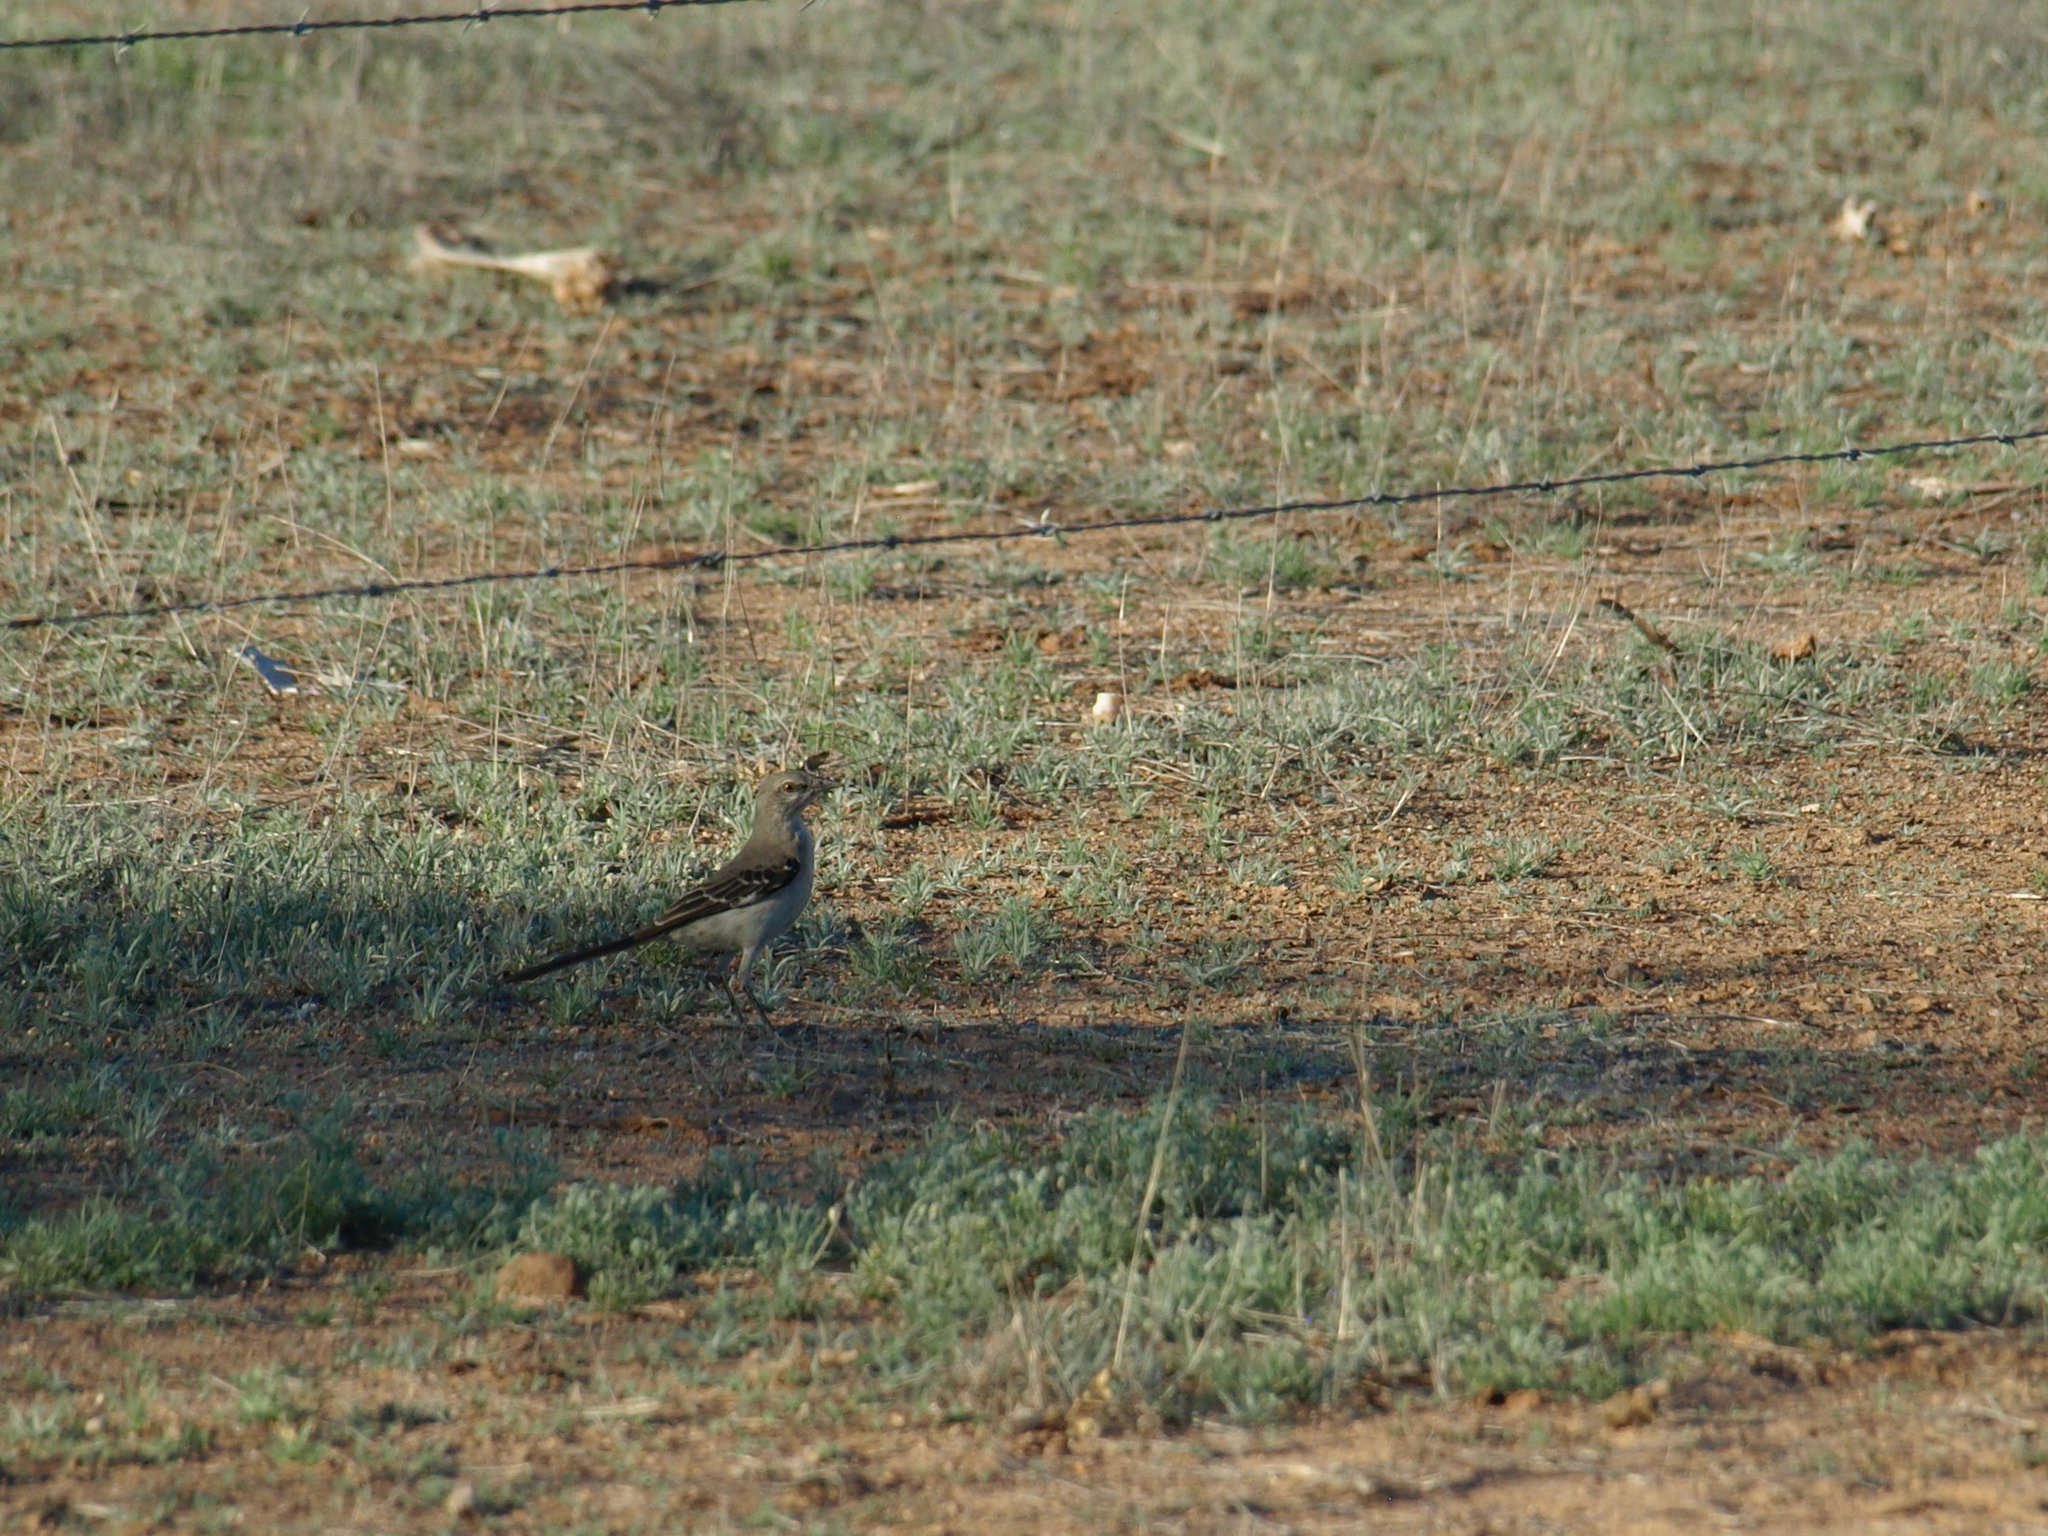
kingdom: Animalia
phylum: Chordata
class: Aves
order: Passeriformes
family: Mimidae
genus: Mimus
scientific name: Mimus polyglottos
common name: Northern mockingbird
